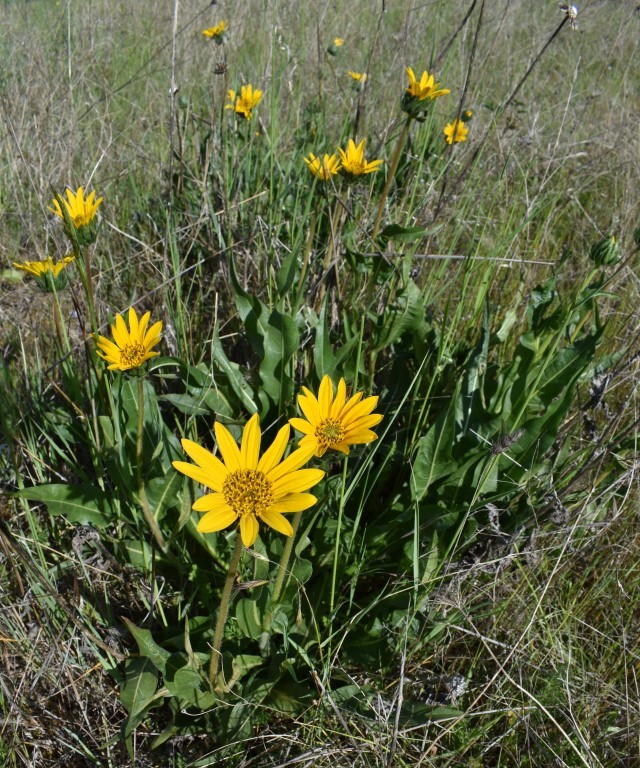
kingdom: Plantae
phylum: Tracheophyta
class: Magnoliopsida
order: Asterales
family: Asteraceae
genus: Wyethia
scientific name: Wyethia angustifolia
